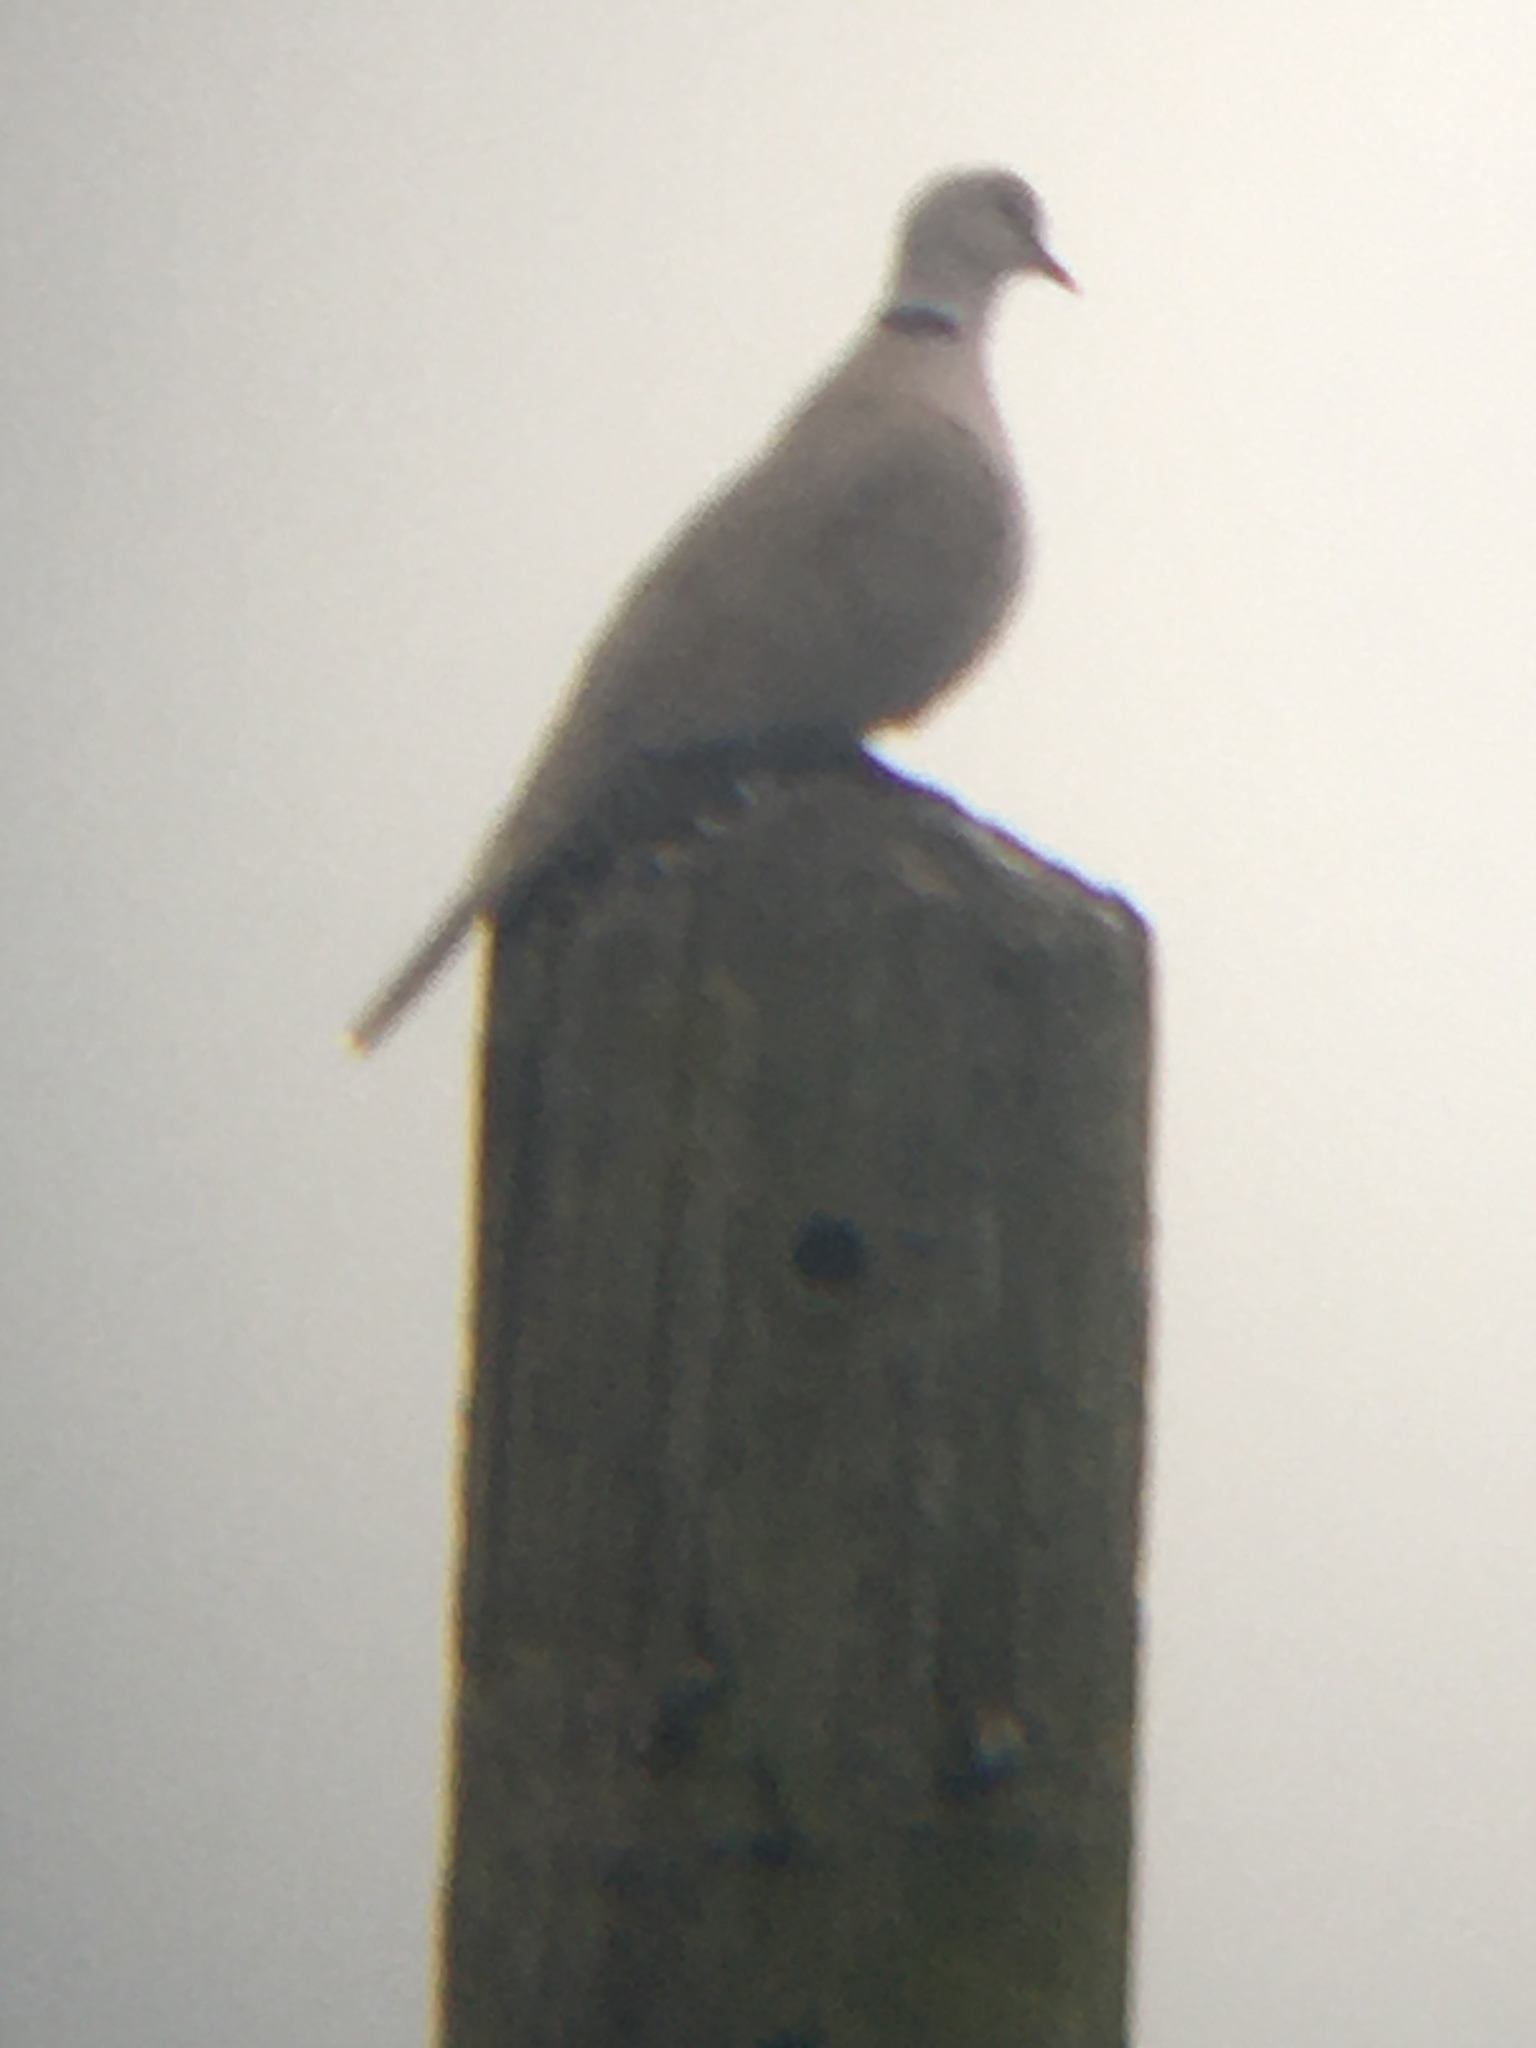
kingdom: Animalia
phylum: Chordata
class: Aves
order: Columbiformes
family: Columbidae
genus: Streptopelia
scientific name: Streptopelia decaocto
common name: Eurasian collared dove
